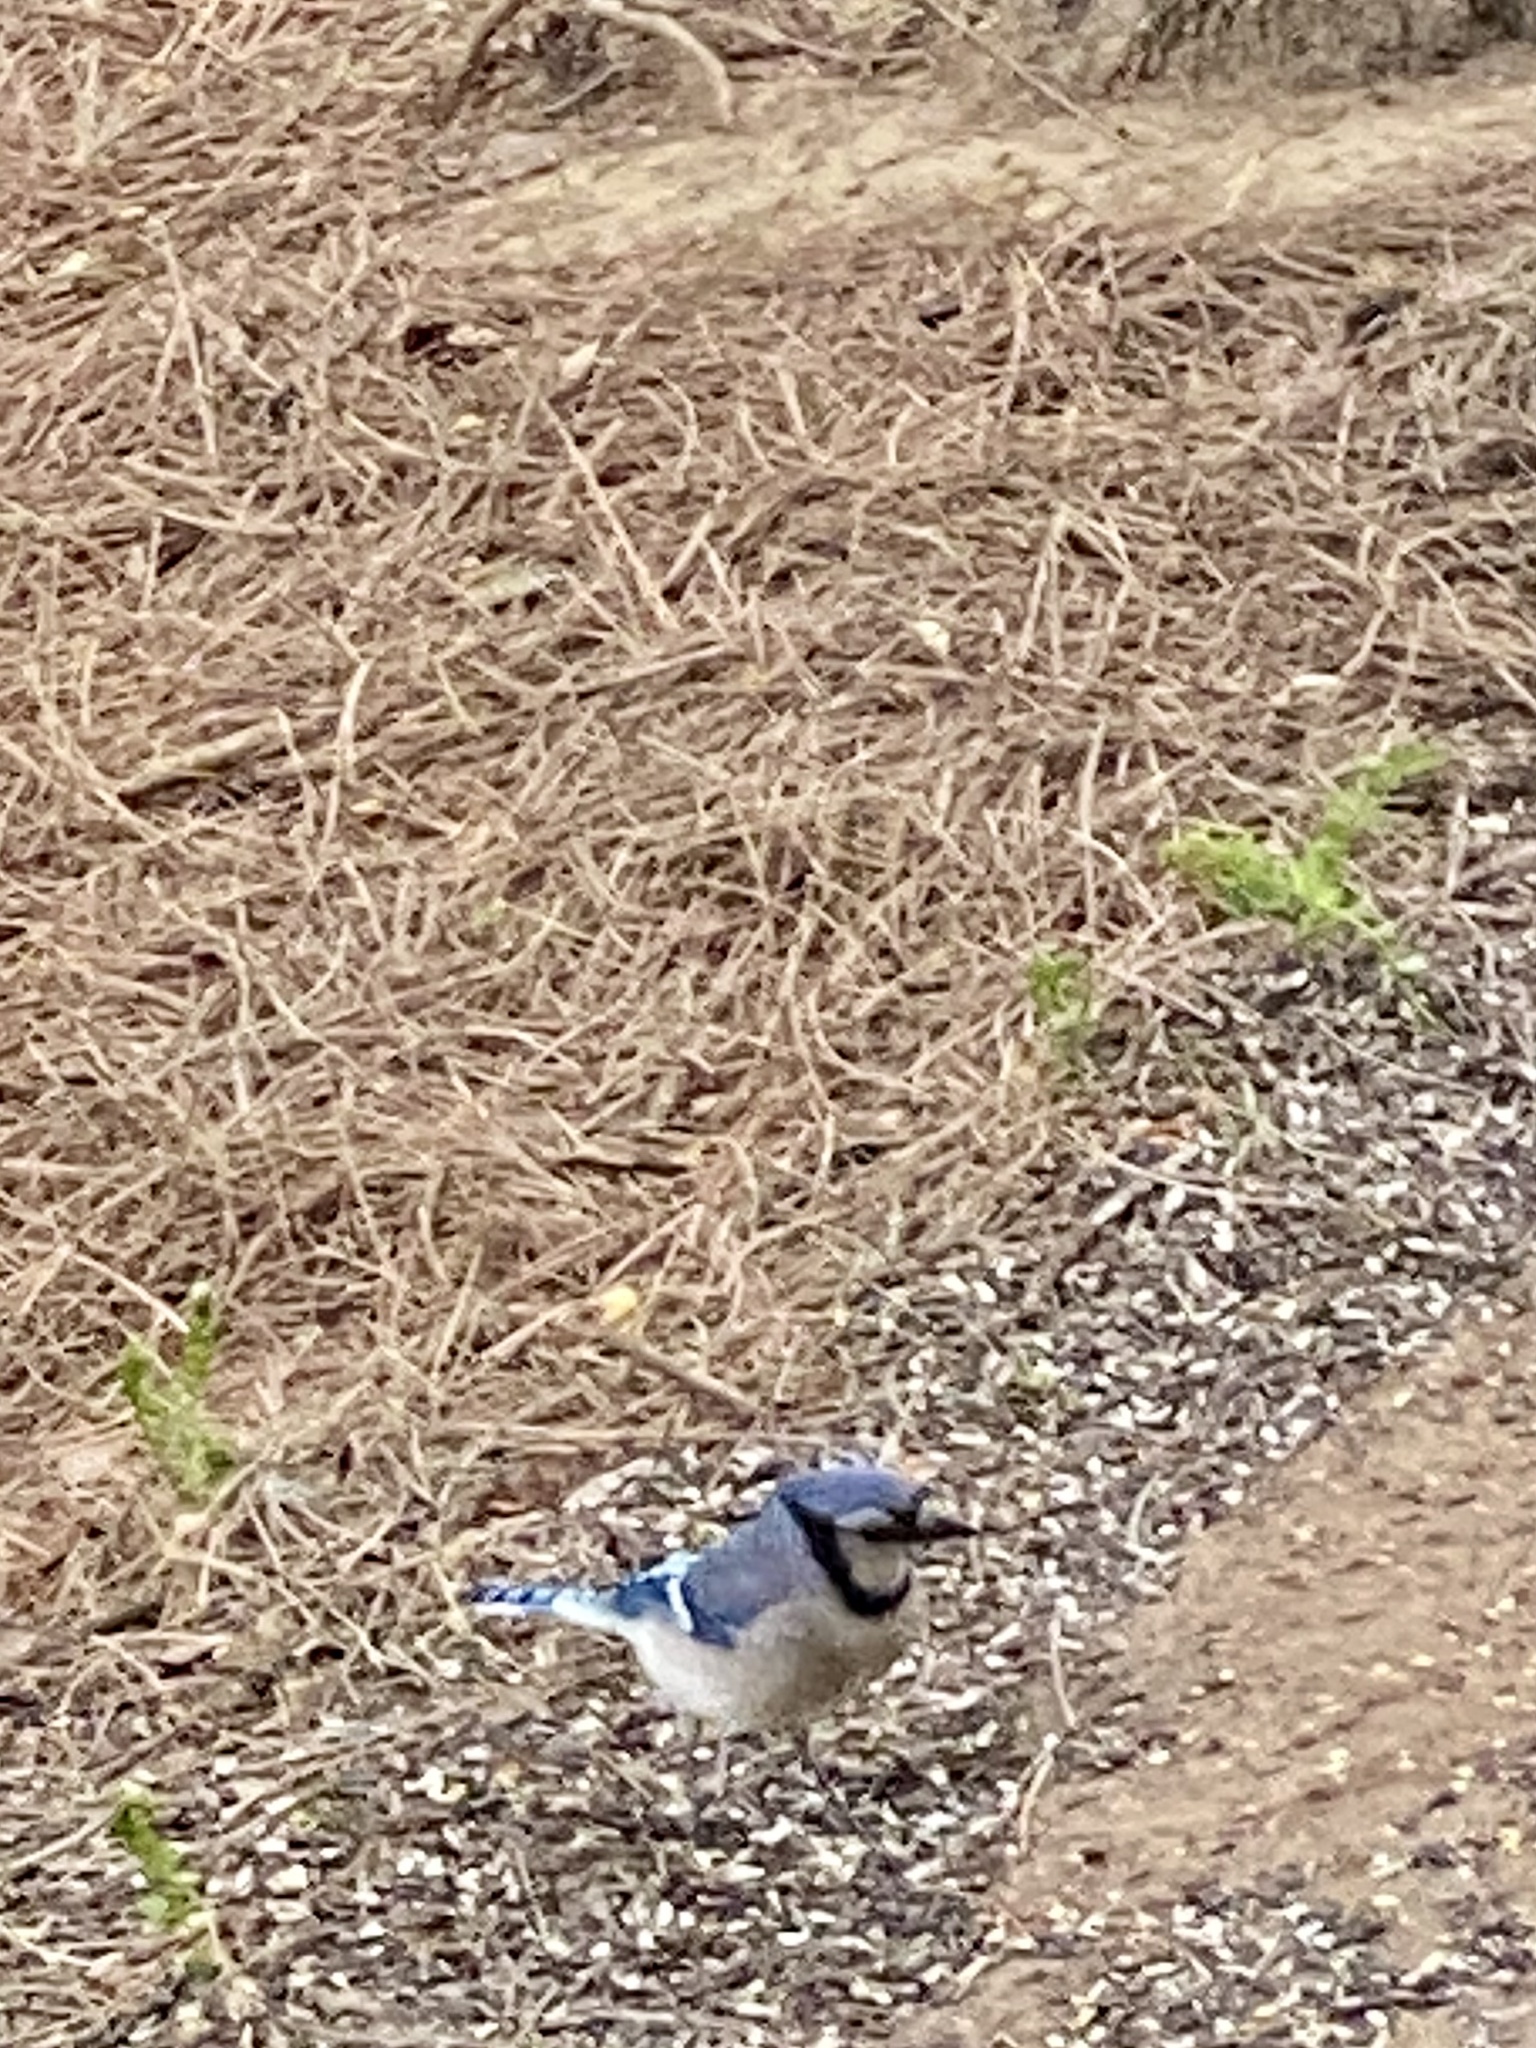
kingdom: Animalia
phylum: Chordata
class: Aves
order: Passeriformes
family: Corvidae
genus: Cyanocitta
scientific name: Cyanocitta cristata
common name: Blue jay
